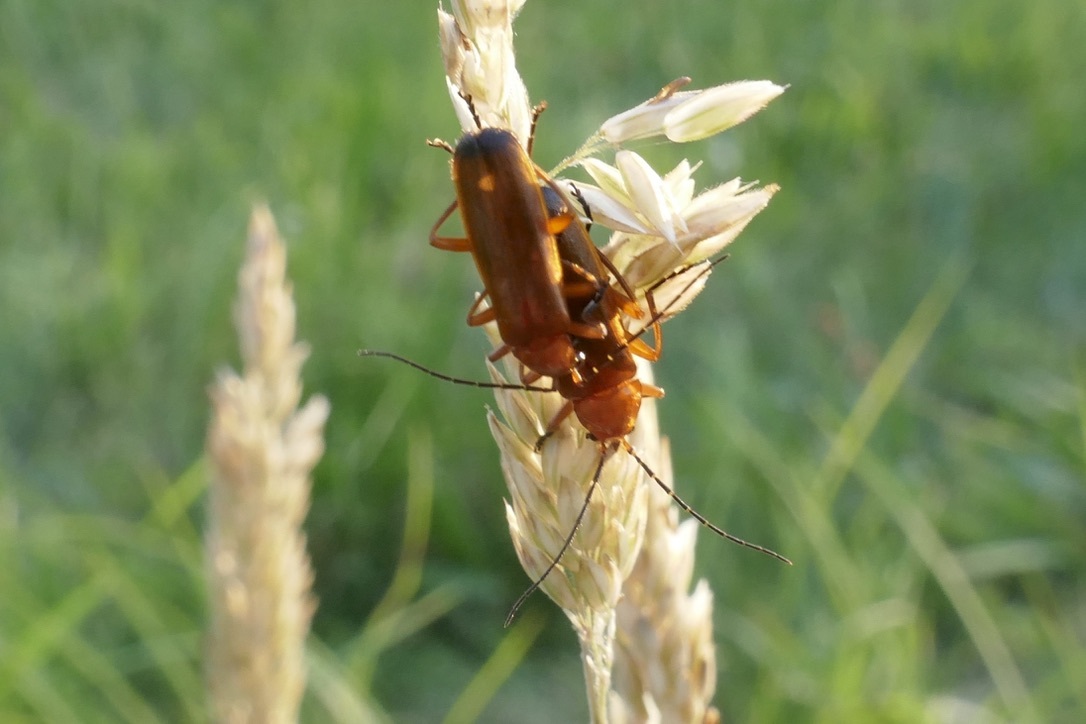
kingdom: Animalia
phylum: Arthropoda
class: Insecta
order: Coleoptera
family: Cantharidae
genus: Rhagonycha
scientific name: Rhagonycha fulva
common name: Common red soldier beetle
